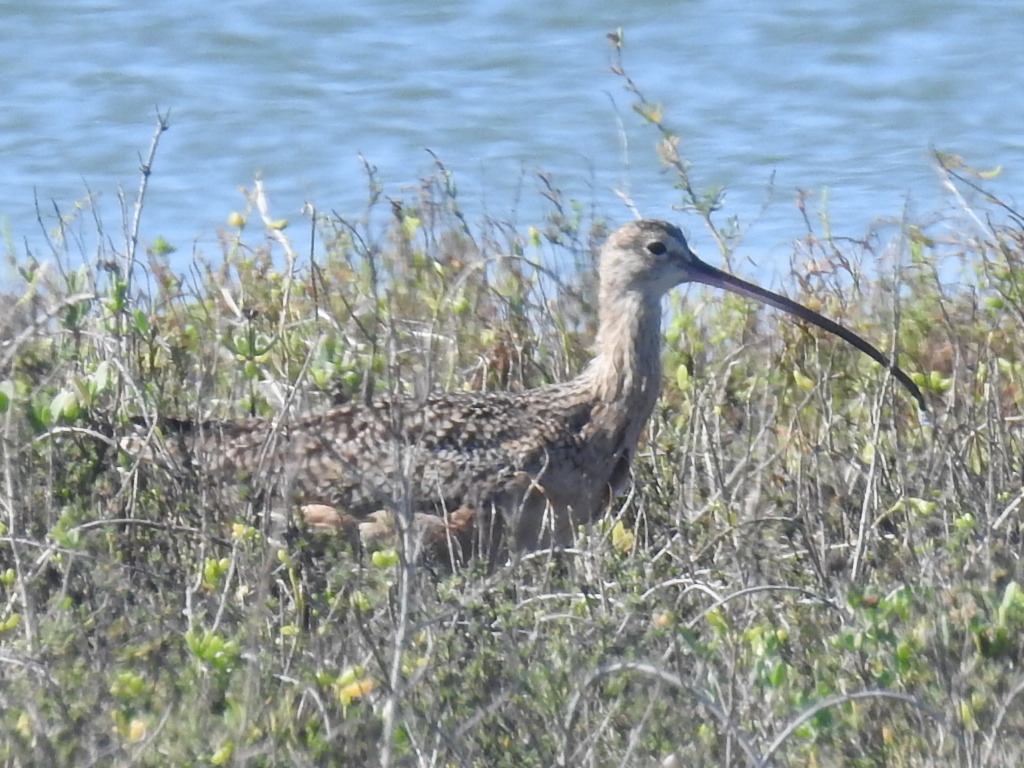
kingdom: Animalia
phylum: Chordata
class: Aves
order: Charadriiformes
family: Scolopacidae
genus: Numenius
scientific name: Numenius americanus
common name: Long-billed curlew
